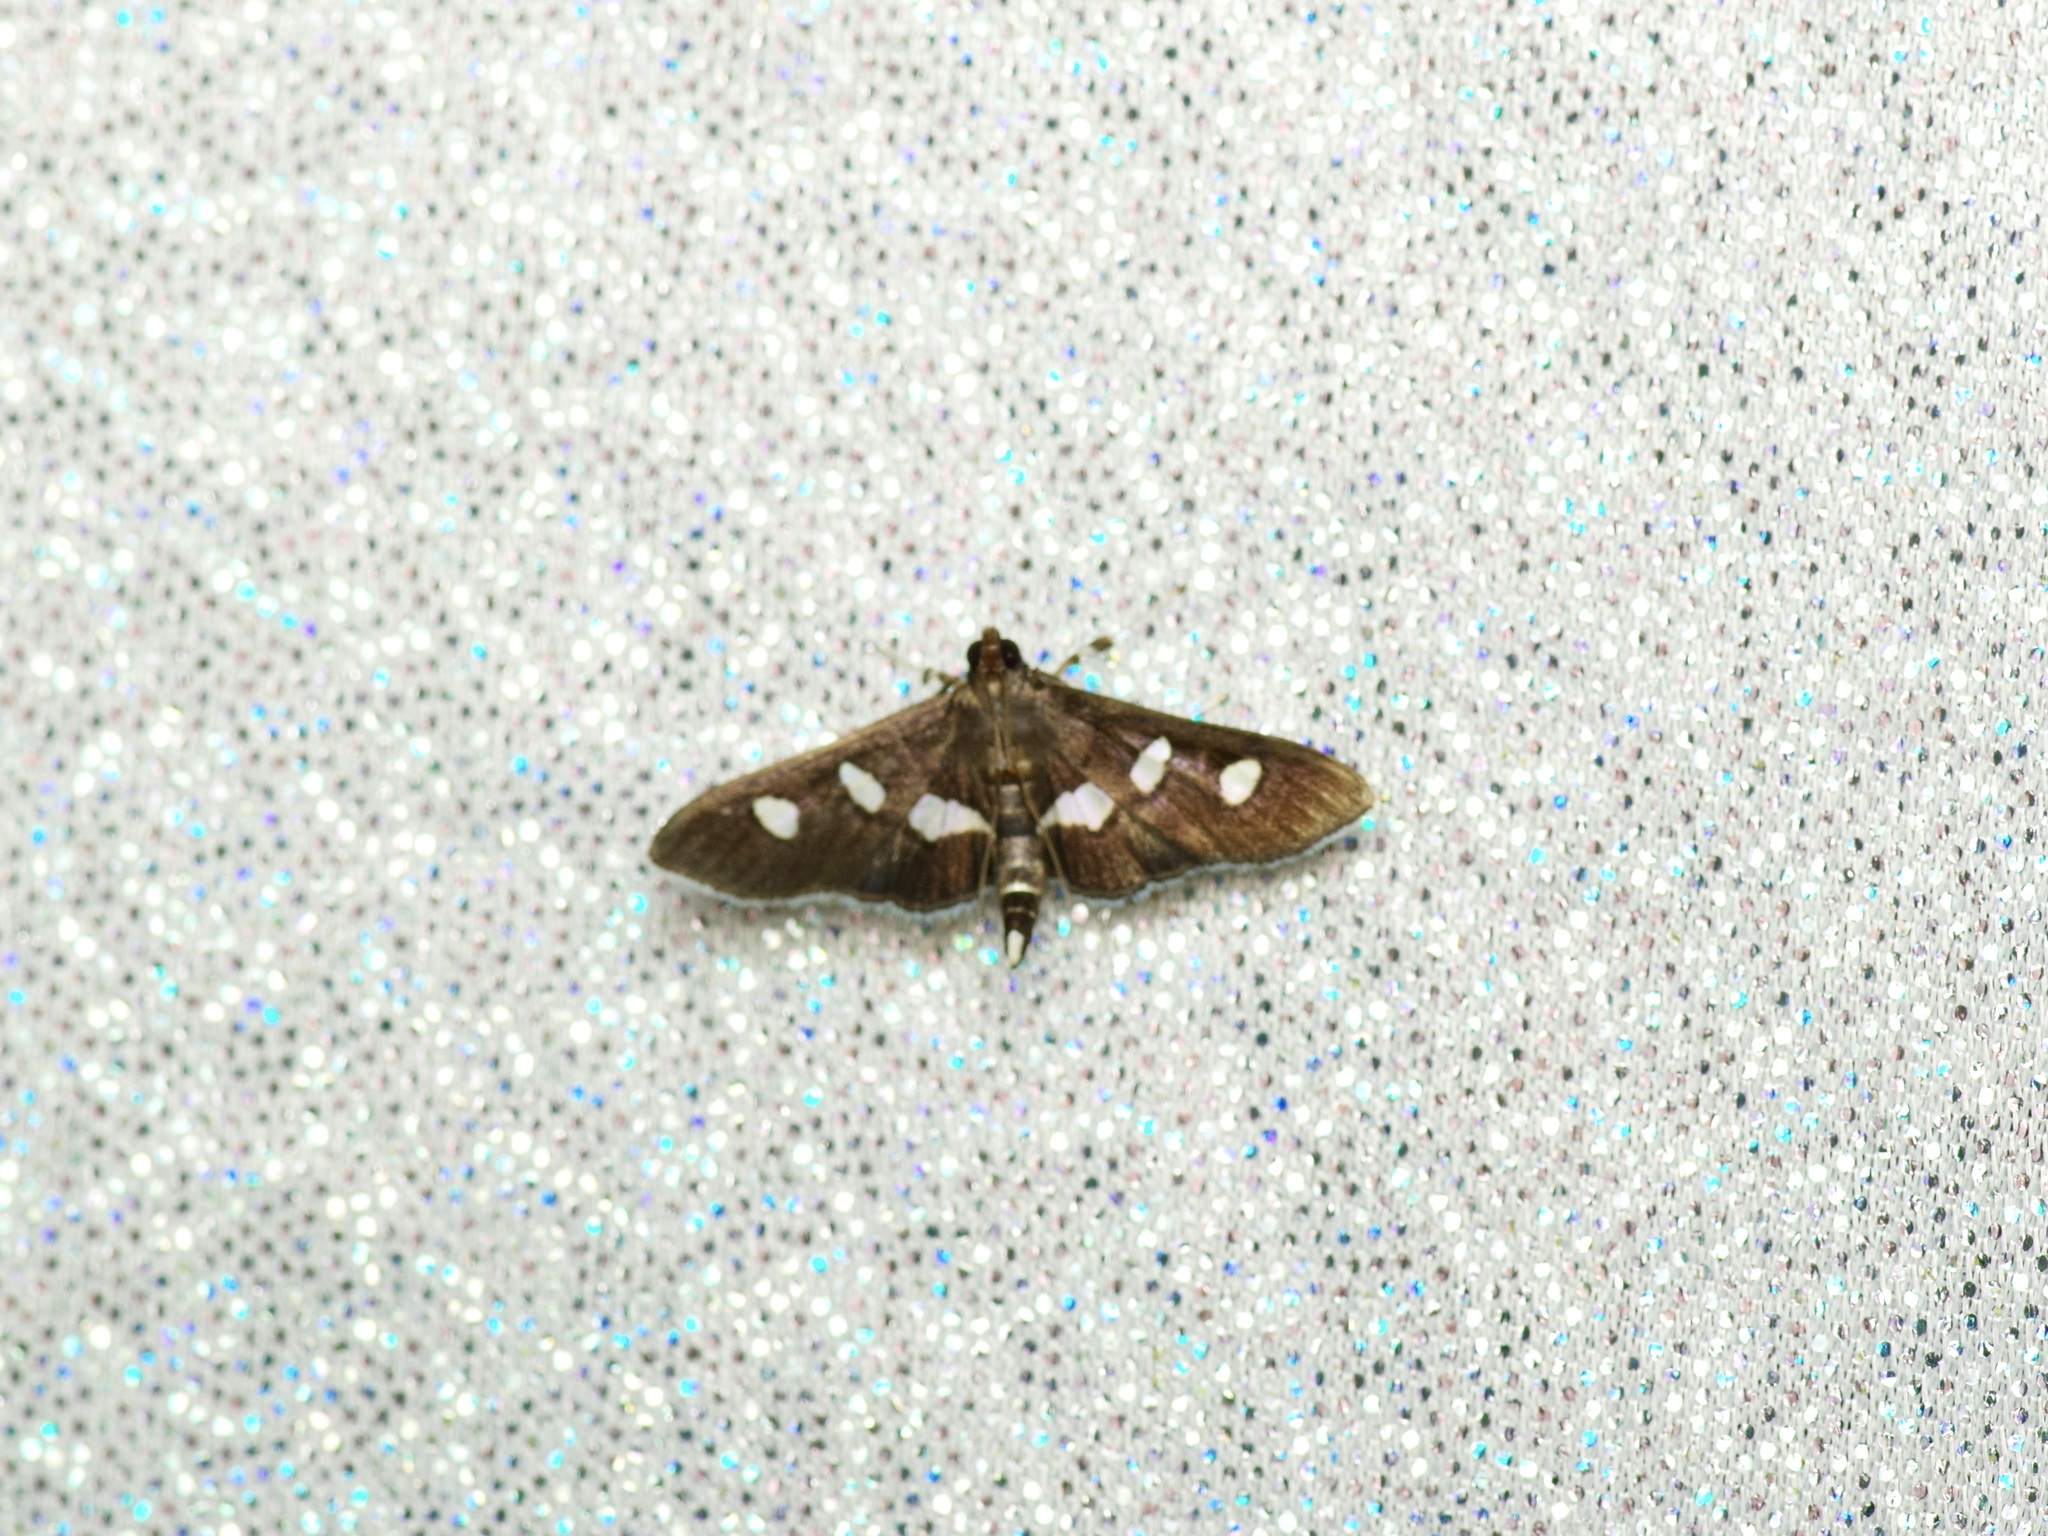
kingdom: Animalia
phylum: Arthropoda
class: Insecta
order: Lepidoptera
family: Crambidae
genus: Desmia
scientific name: Desmia funeralis
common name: Grape leaf folder moth
